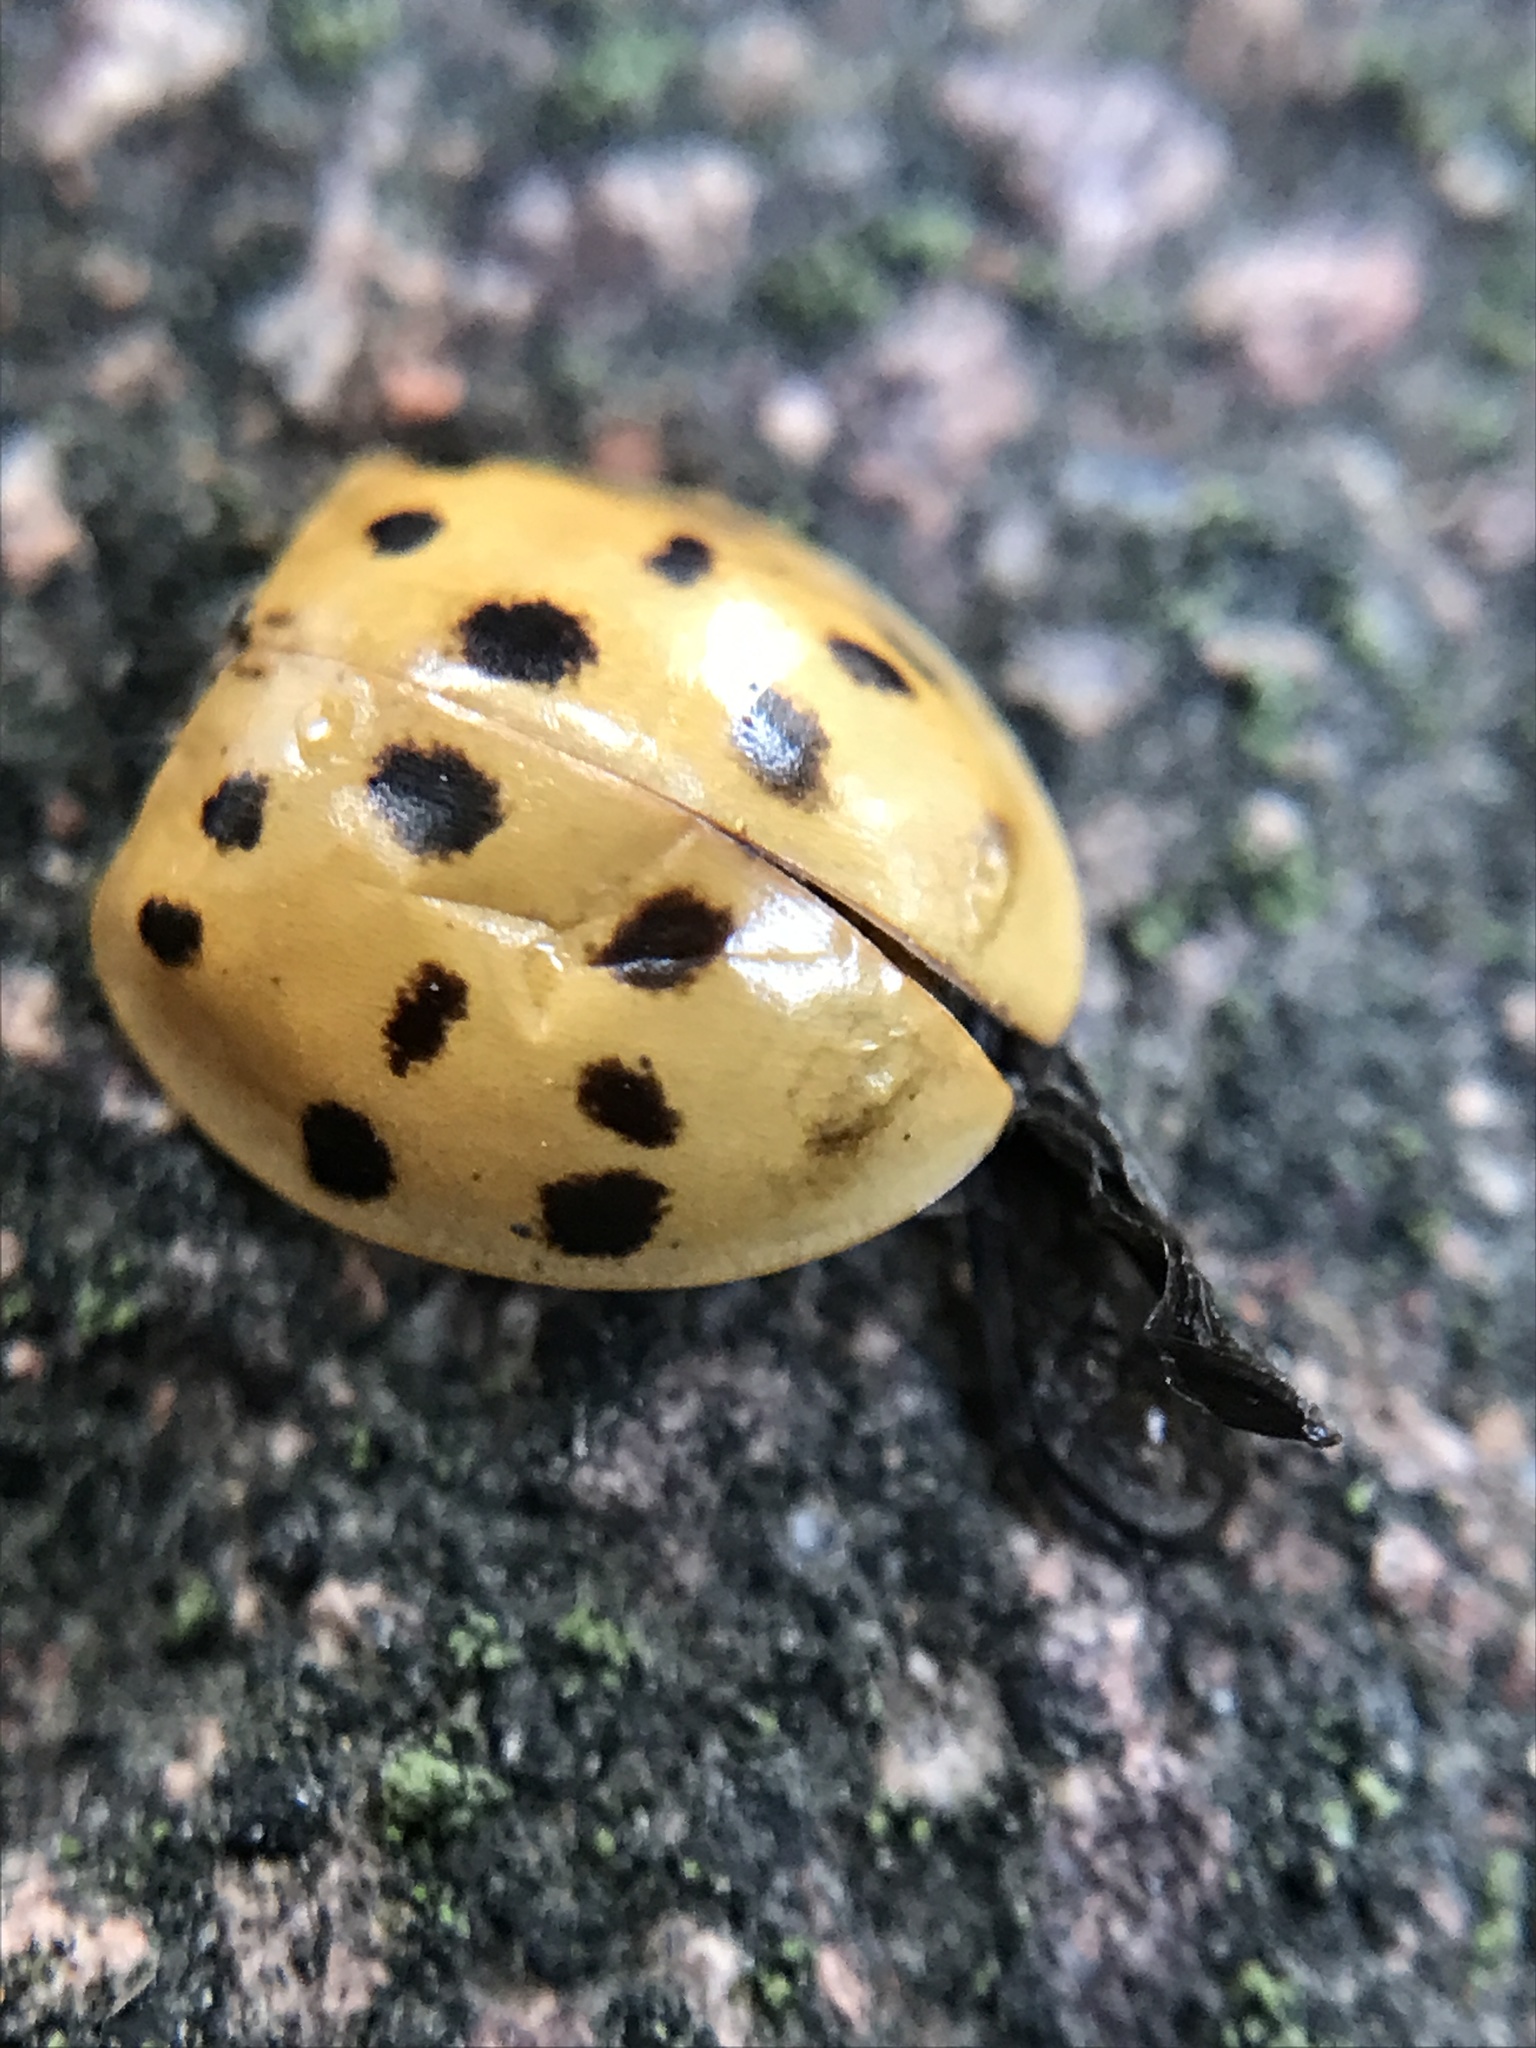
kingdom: Animalia
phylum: Arthropoda
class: Insecta
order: Coleoptera
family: Coccinellidae
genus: Harmonia
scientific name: Harmonia axyridis
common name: Harlequin ladybird
